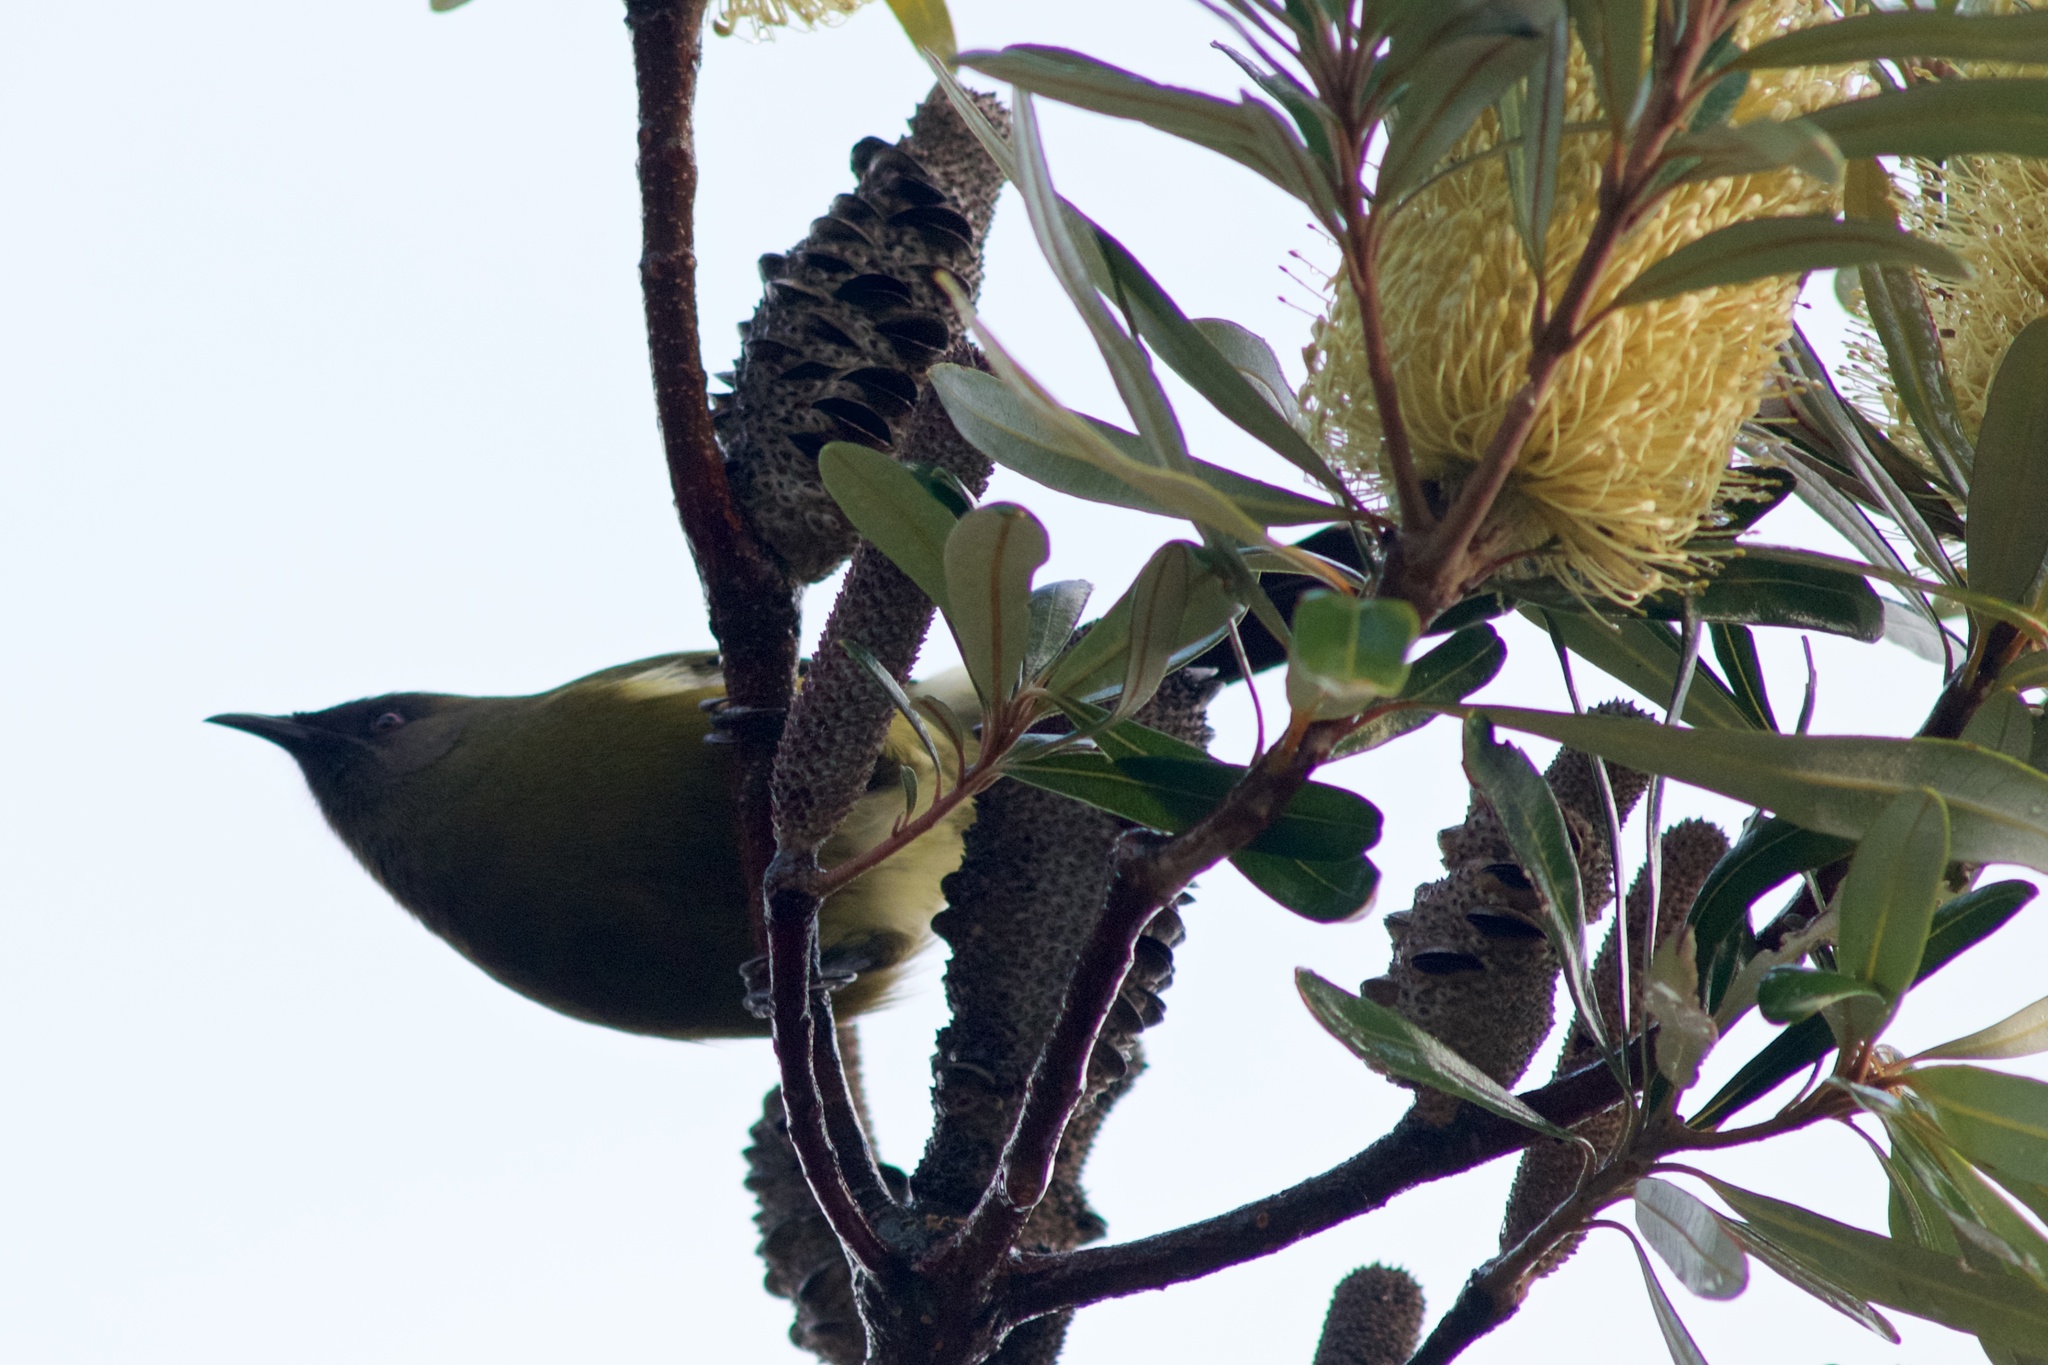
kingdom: Animalia
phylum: Chordata
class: Aves
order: Passeriformes
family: Meliphagidae
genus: Anthornis
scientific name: Anthornis melanura
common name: New zealand bellbird
